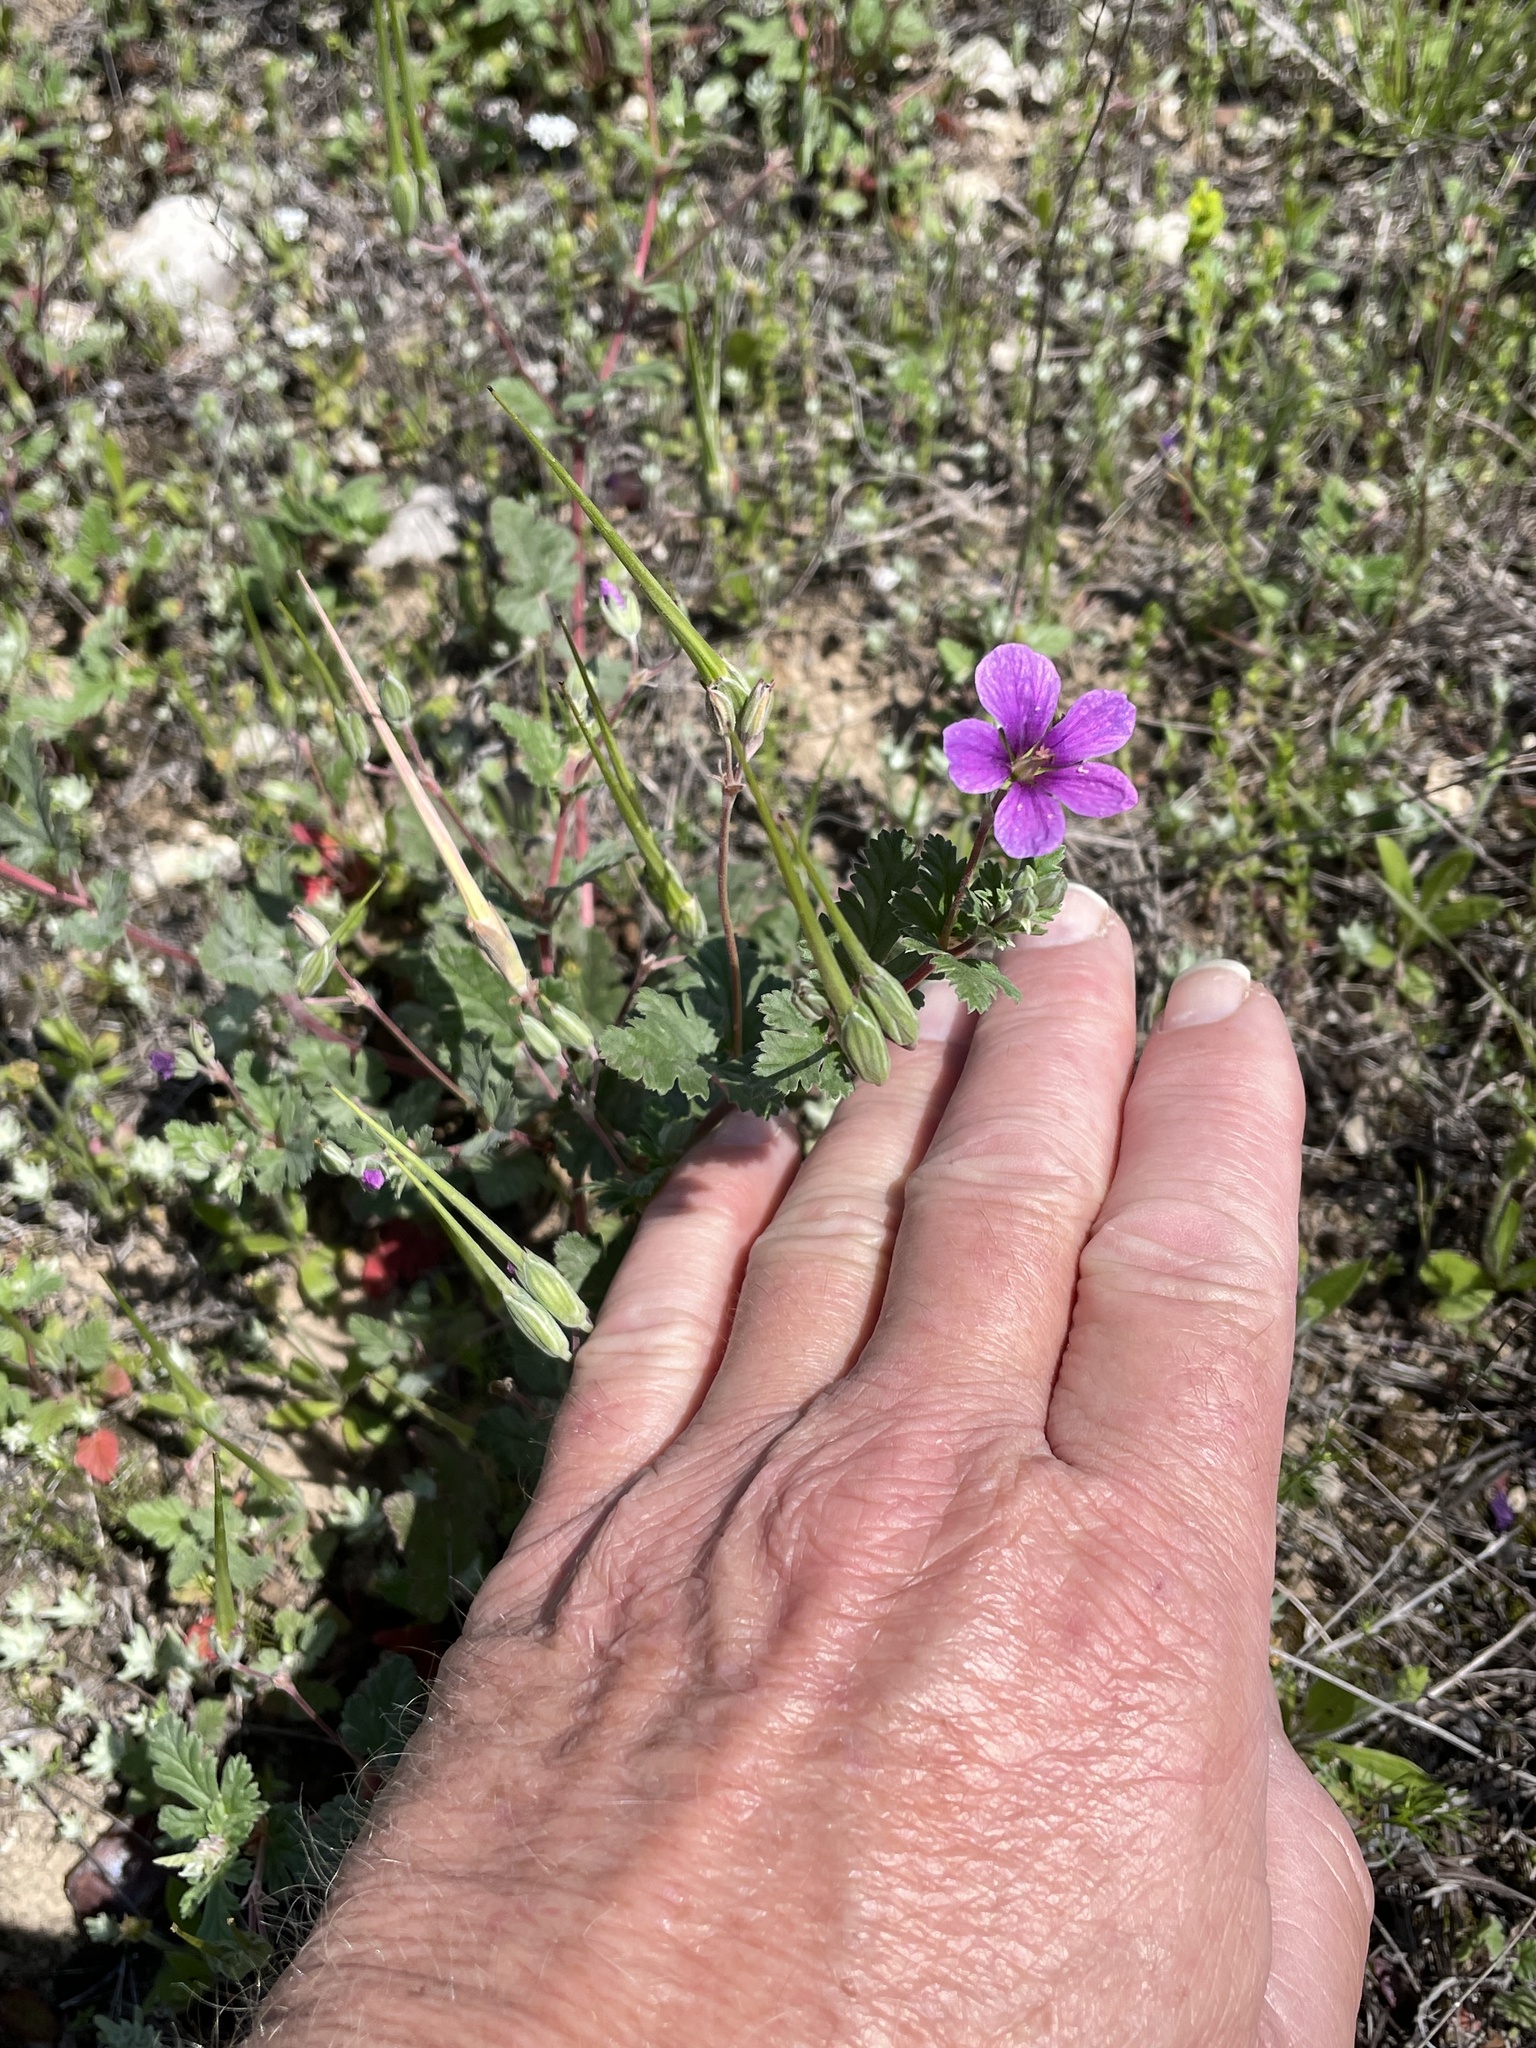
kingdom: Plantae
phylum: Tracheophyta
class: Magnoliopsida
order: Geraniales
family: Geraniaceae
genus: Erodium
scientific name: Erodium texanum
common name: Texas stork's-bill
